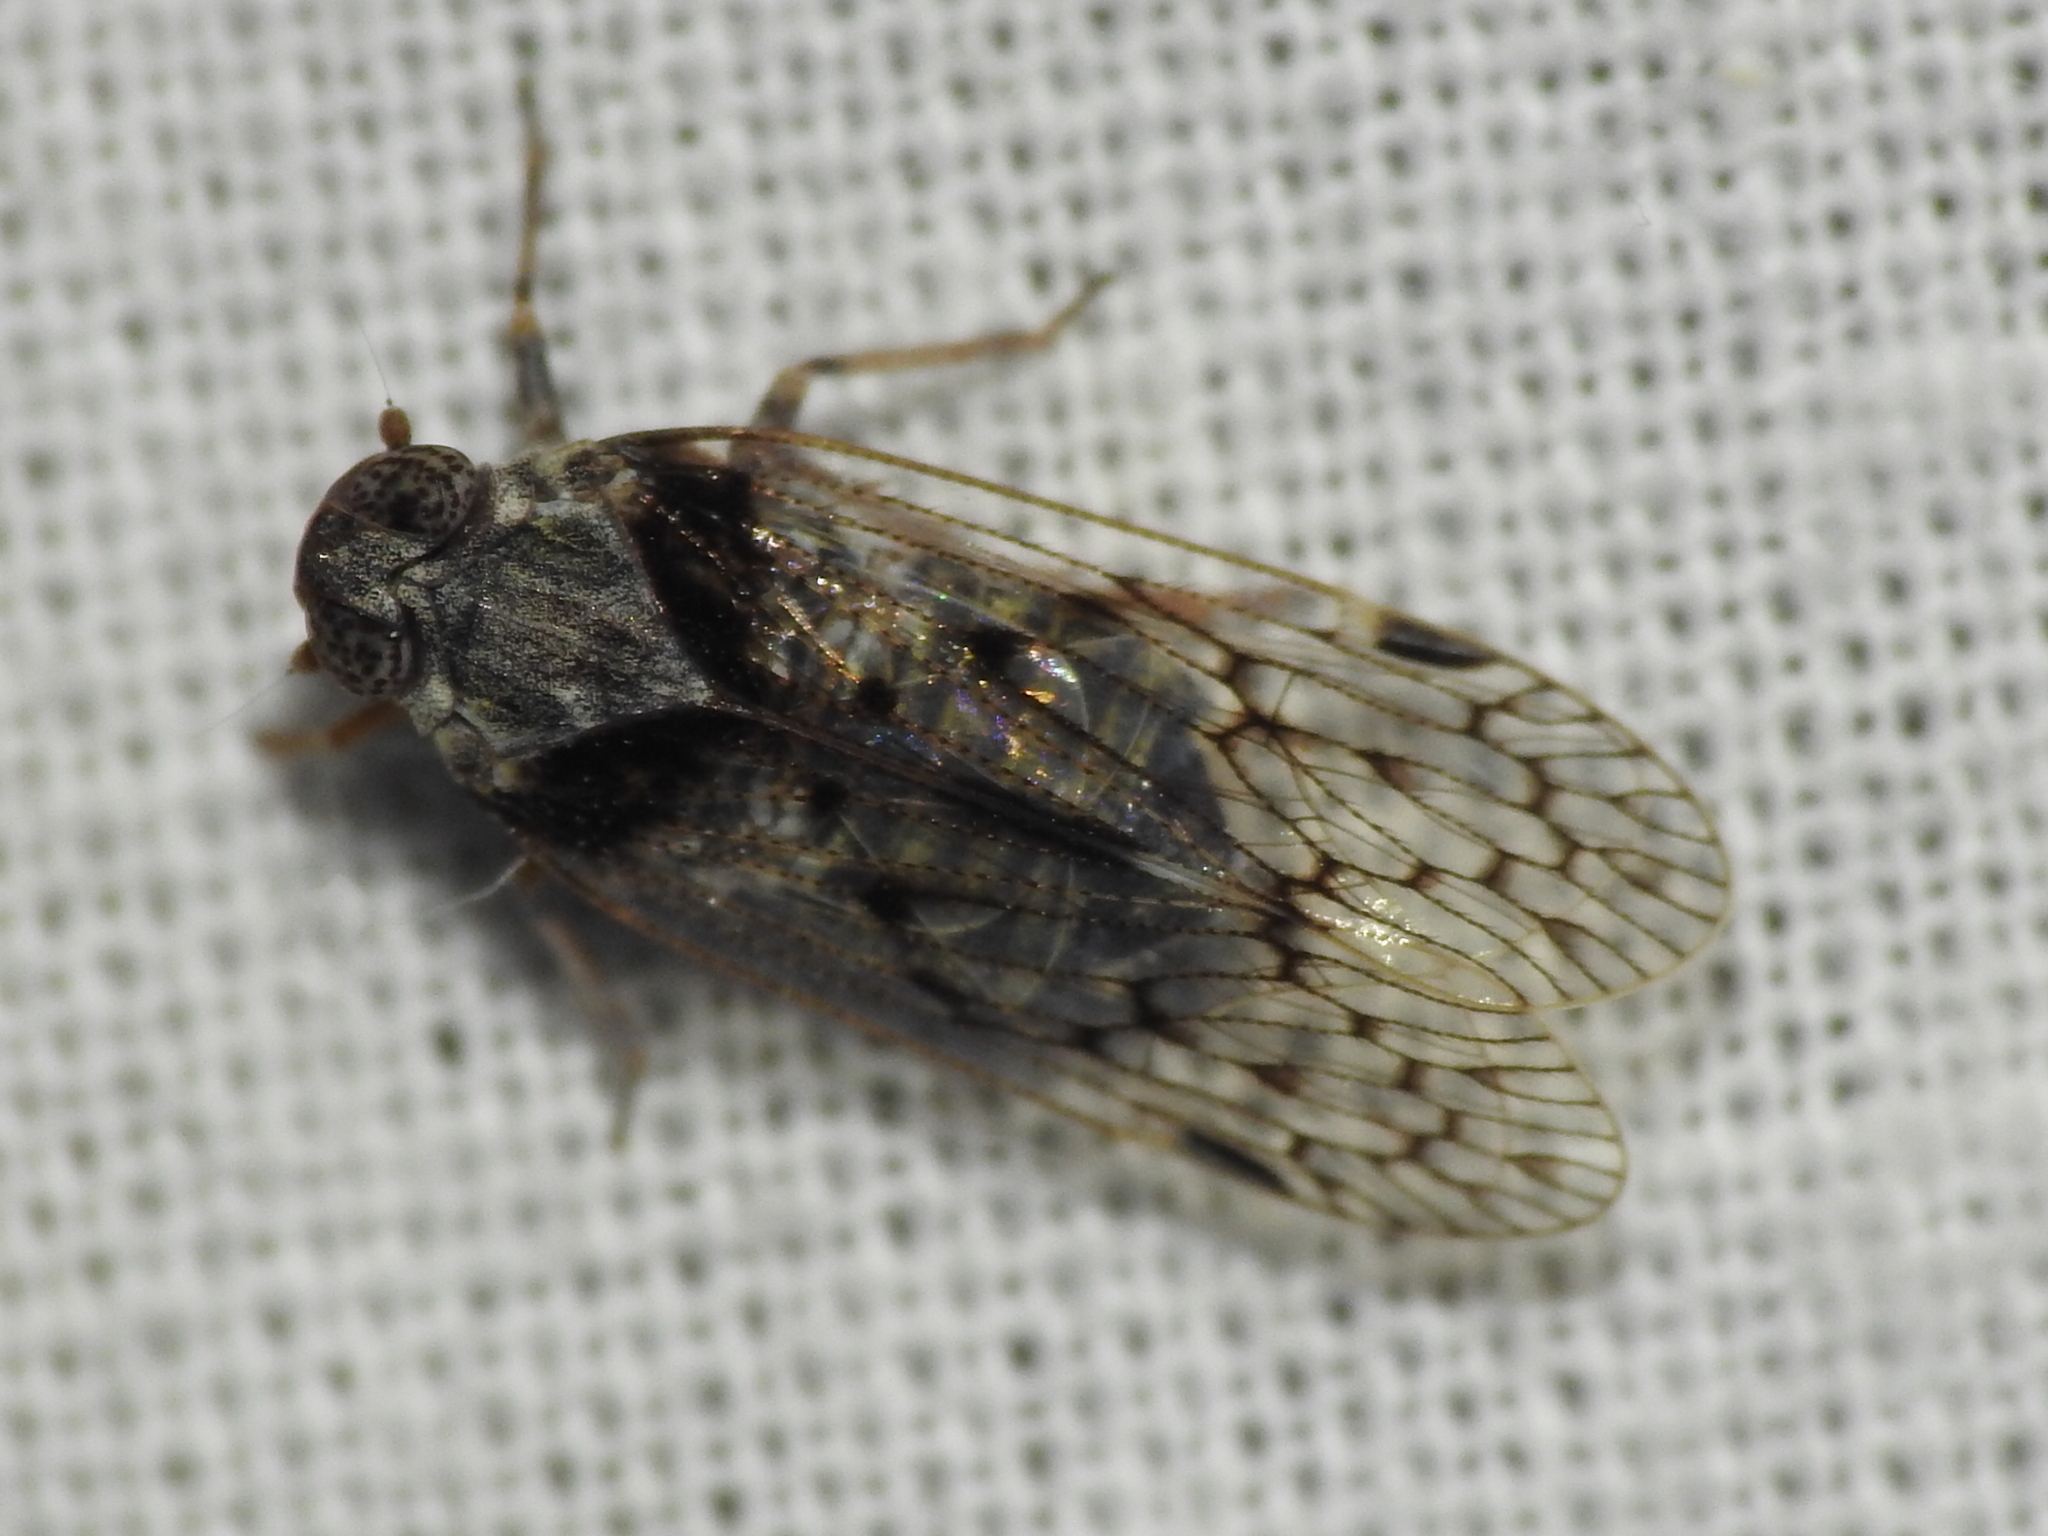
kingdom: Animalia
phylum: Arthropoda
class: Insecta
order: Hemiptera
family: Cixiidae
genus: Melanoliarus
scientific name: Melanoliarus aridus
